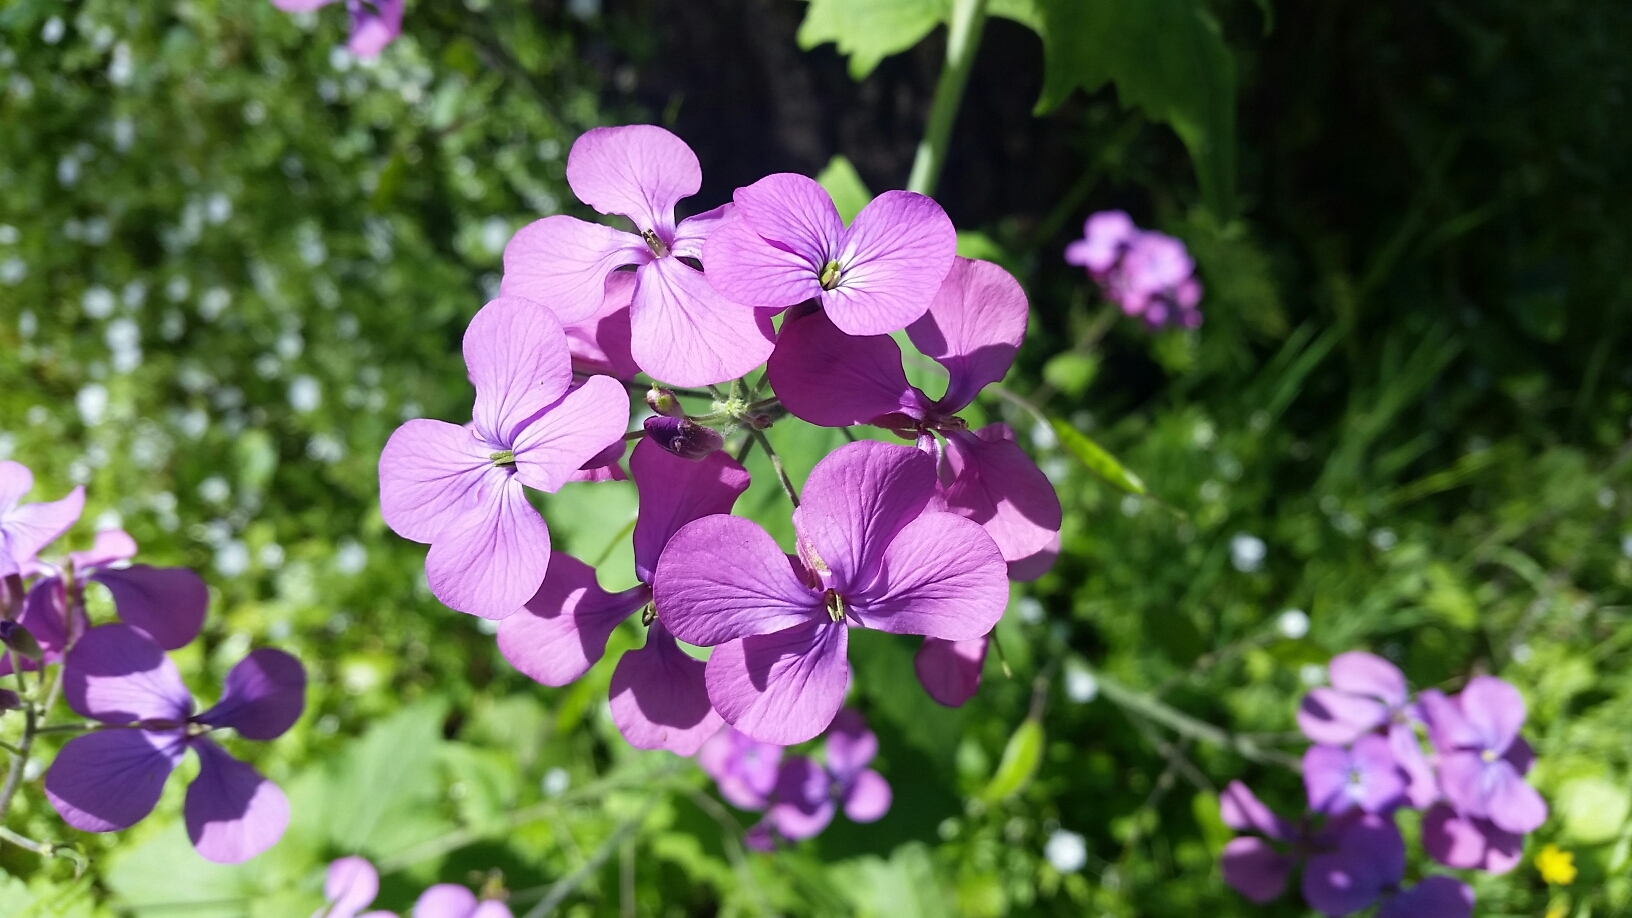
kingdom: Plantae
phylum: Tracheophyta
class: Magnoliopsida
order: Brassicales
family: Brassicaceae
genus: Lunaria
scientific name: Lunaria annua
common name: Honesty
